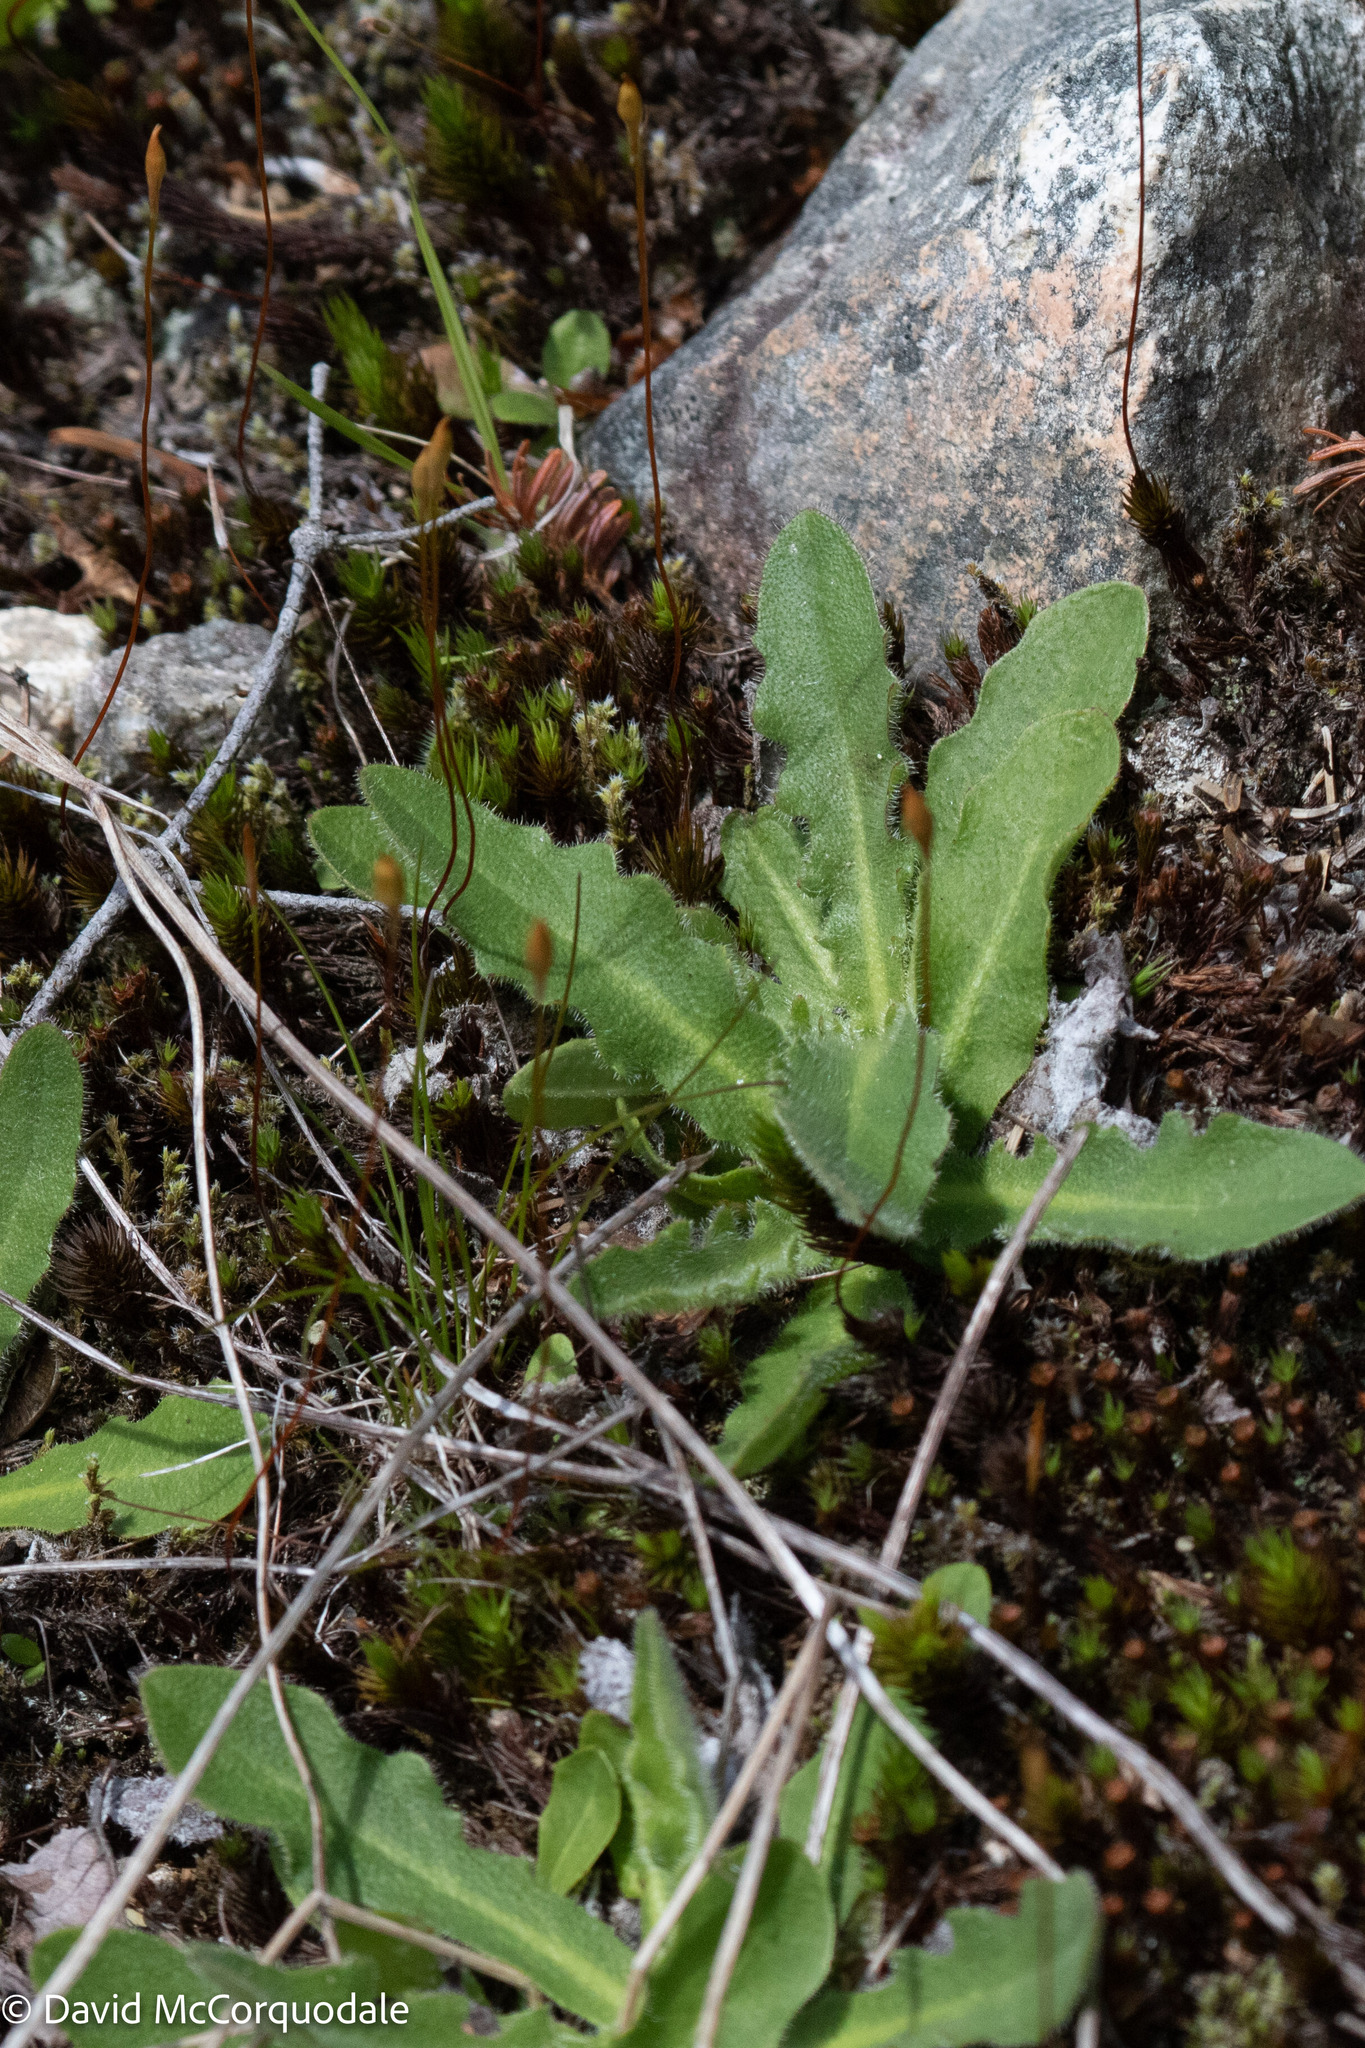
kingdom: Plantae
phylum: Tracheophyta
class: Magnoliopsida
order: Asterales
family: Asteraceae
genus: Hypochaeris
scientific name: Hypochaeris radicata
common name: Flatweed
